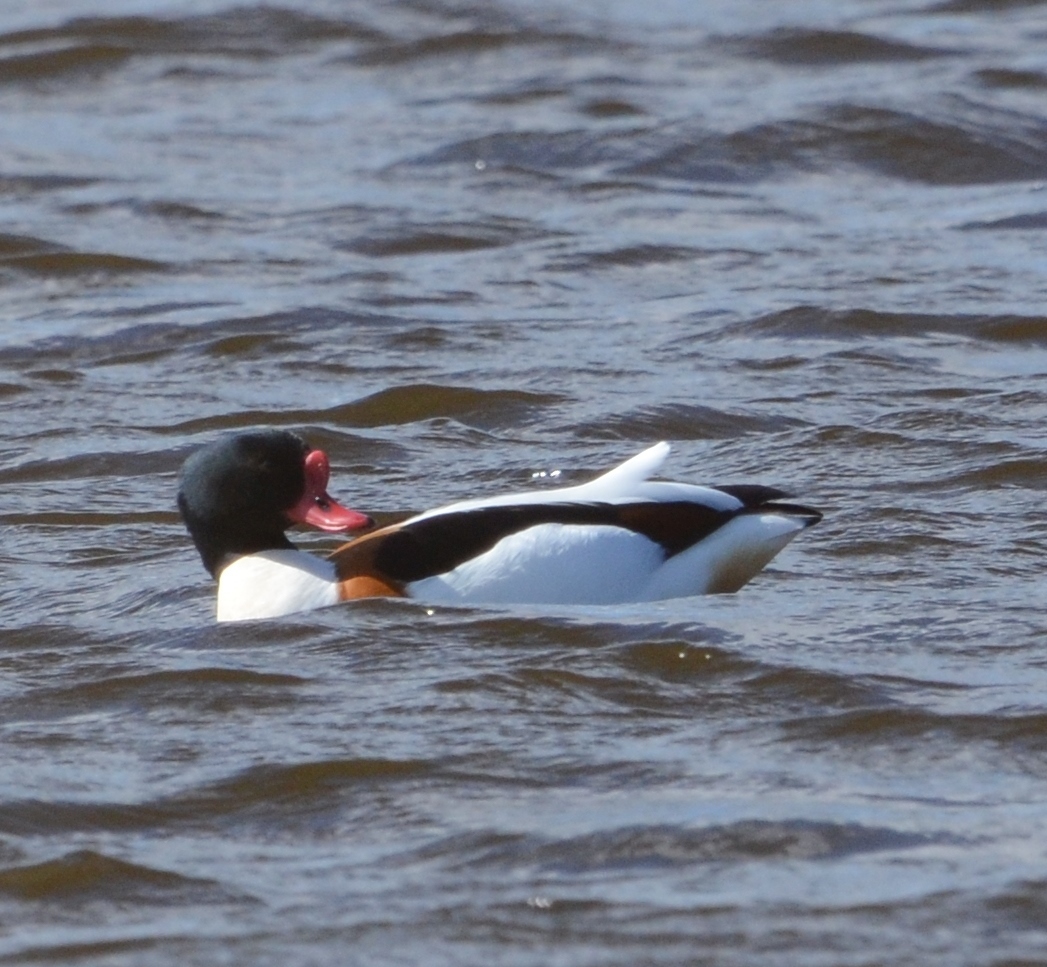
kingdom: Animalia
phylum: Chordata
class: Aves
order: Anseriformes
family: Anatidae
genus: Tadorna
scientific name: Tadorna tadorna
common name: Common shelduck
